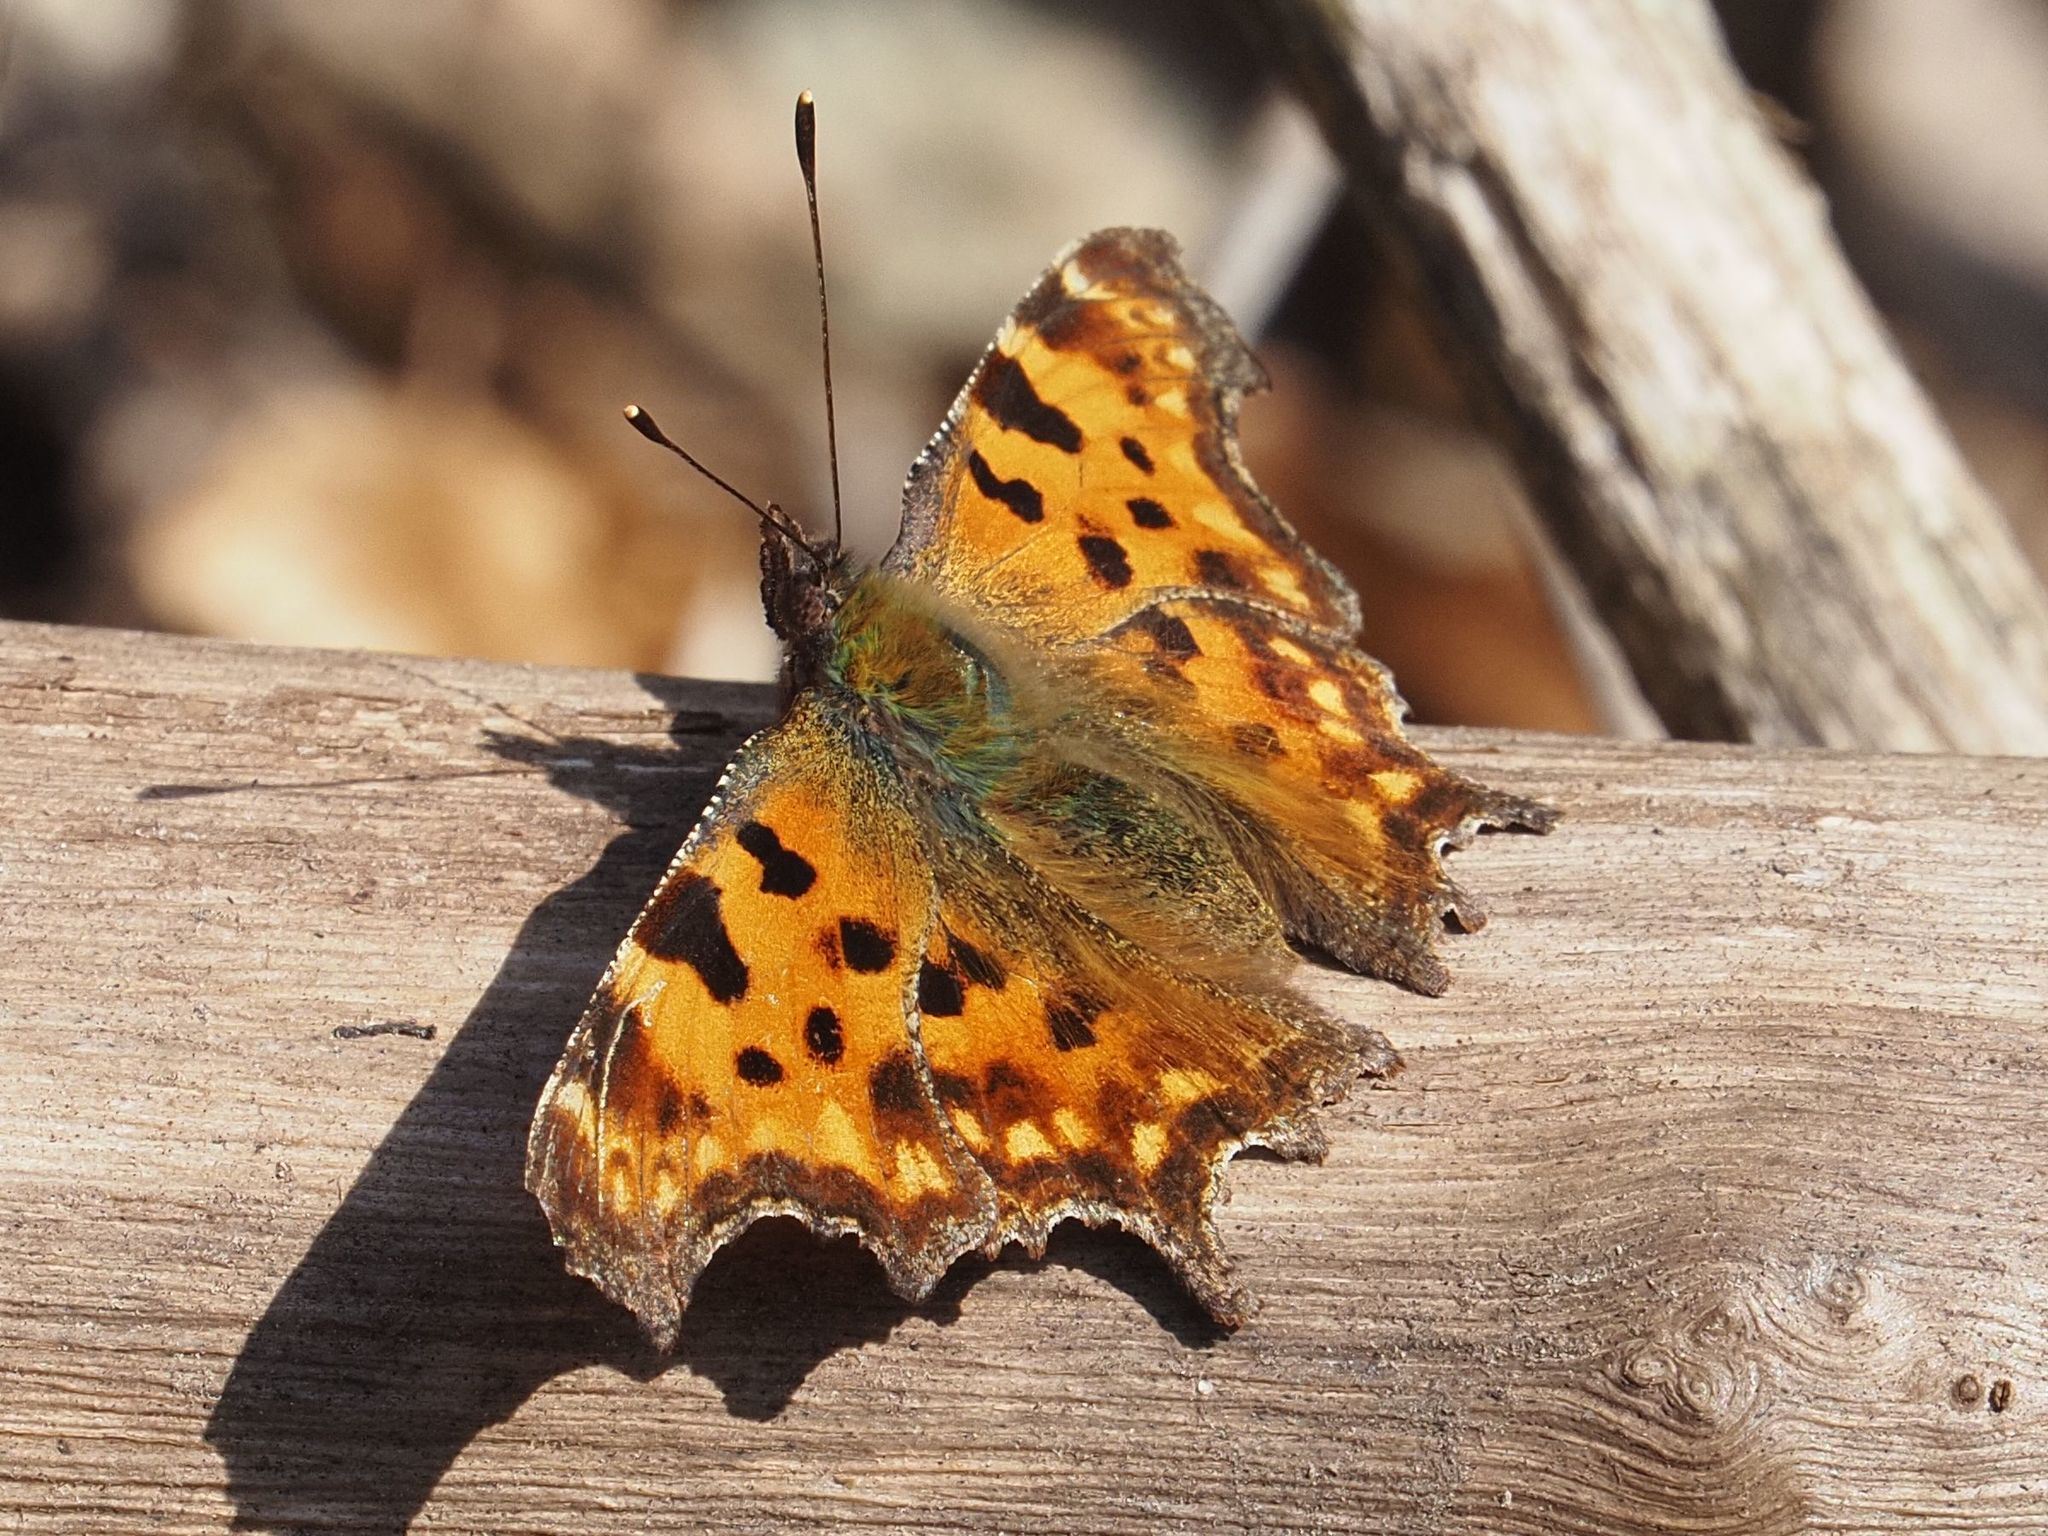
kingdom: Animalia
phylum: Arthropoda
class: Insecta
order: Lepidoptera
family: Nymphalidae
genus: Polygonia
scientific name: Polygonia c-album
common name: Comma
